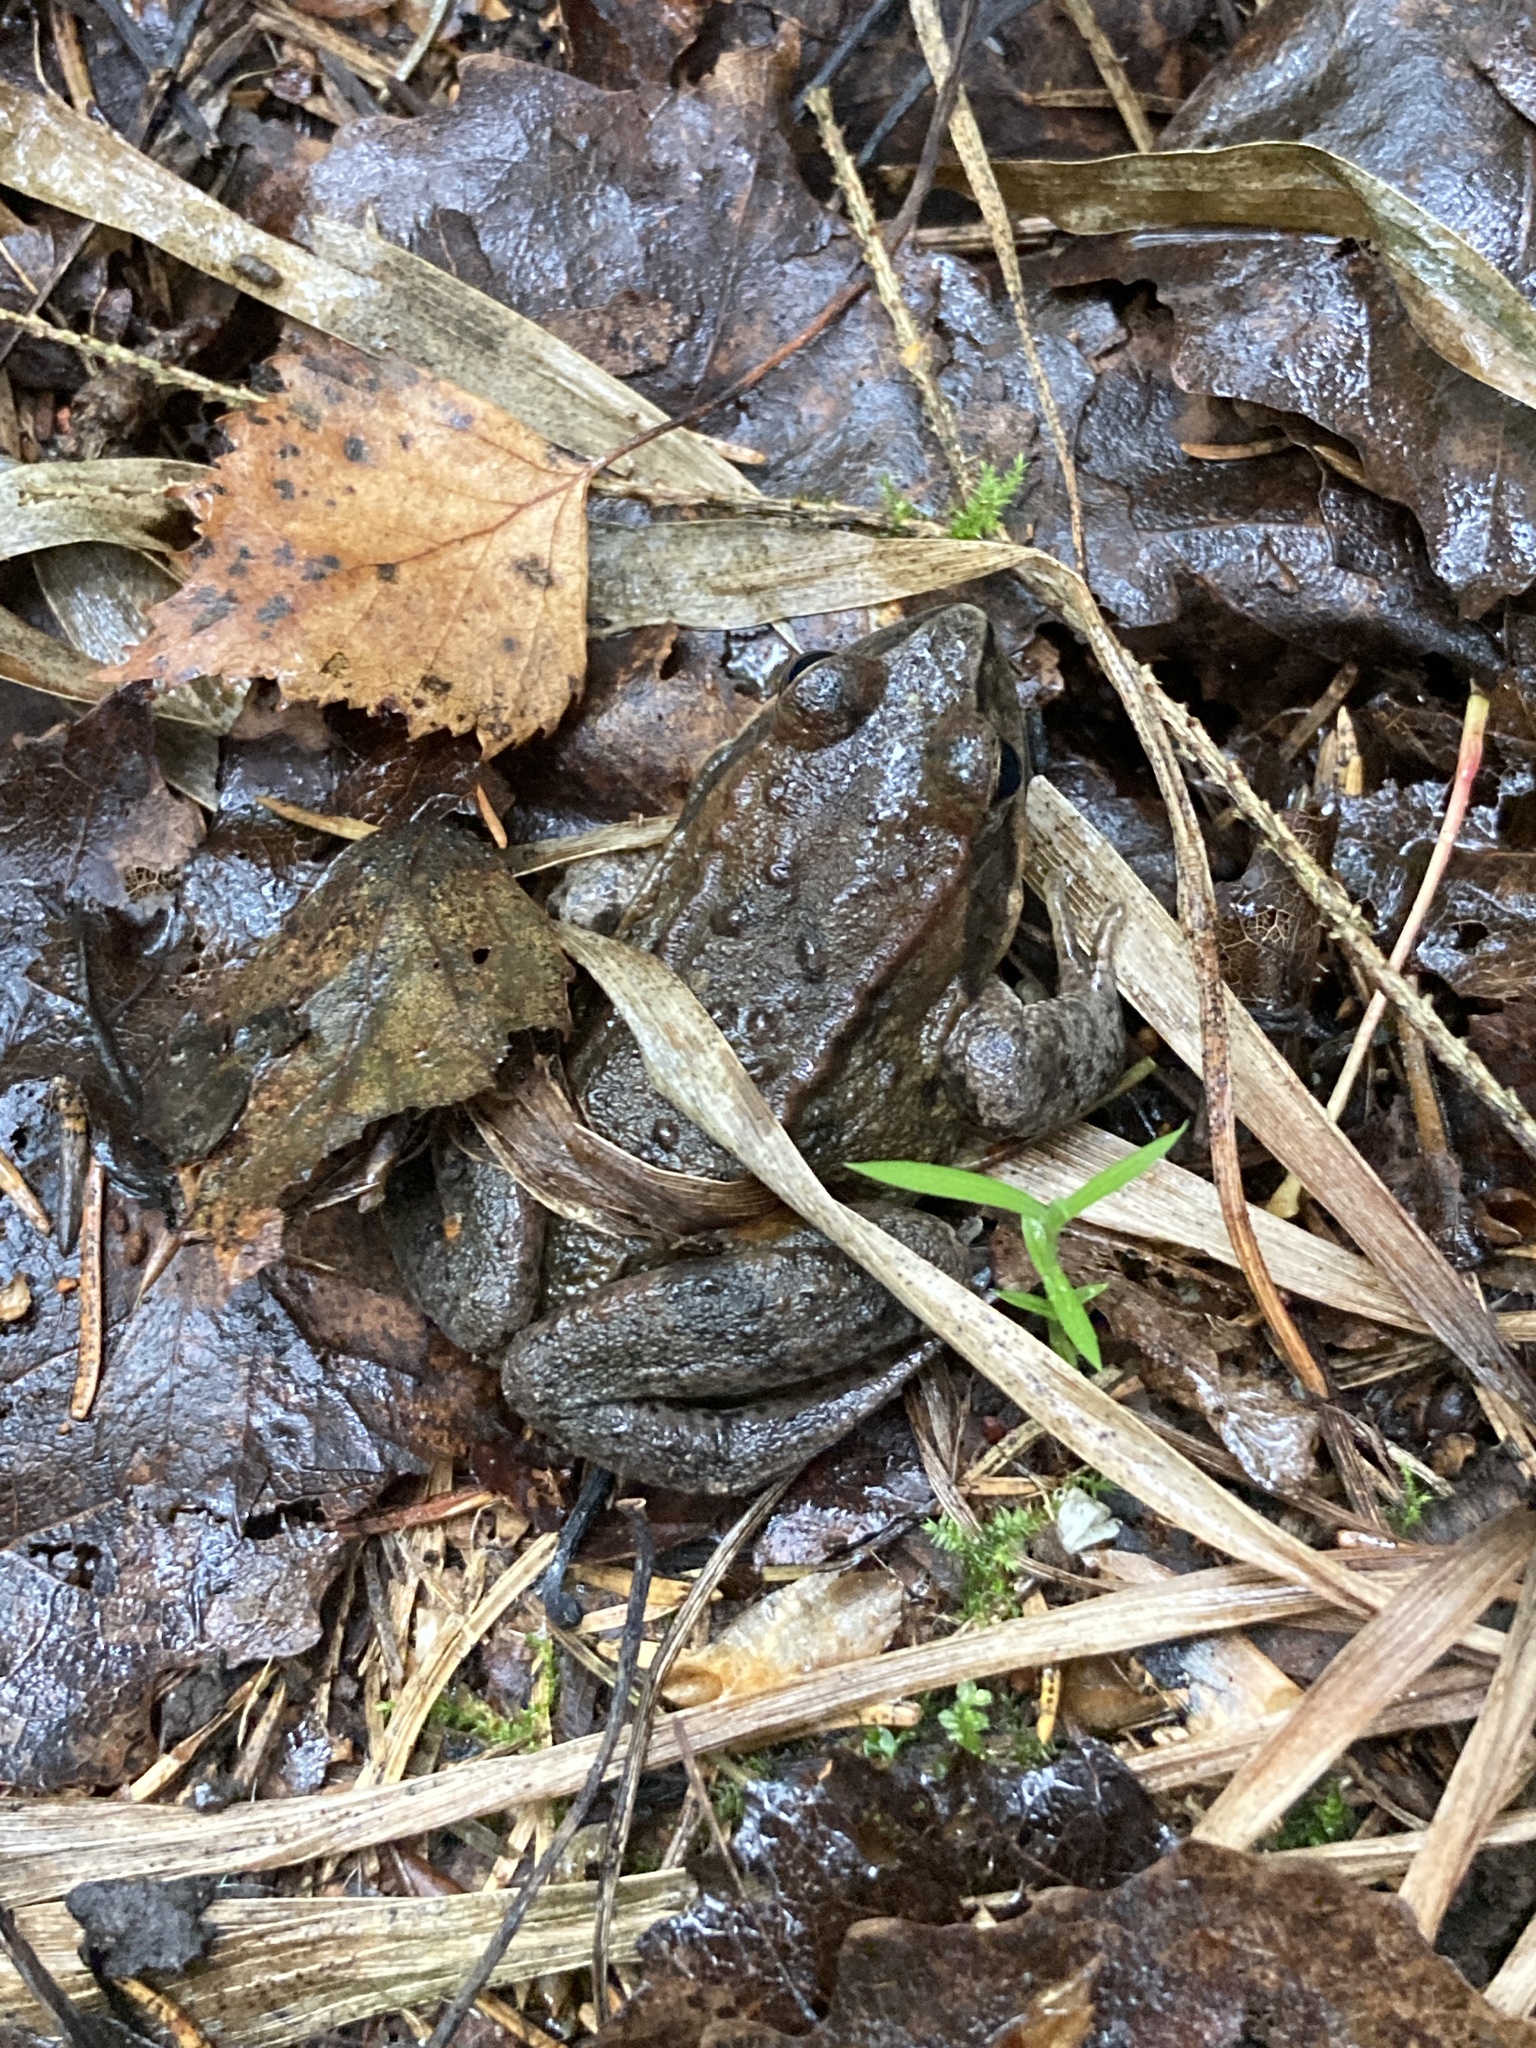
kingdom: Animalia
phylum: Chordata
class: Amphibia
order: Anura
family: Ranidae
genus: Rana
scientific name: Rana temporaria
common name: Common frog
